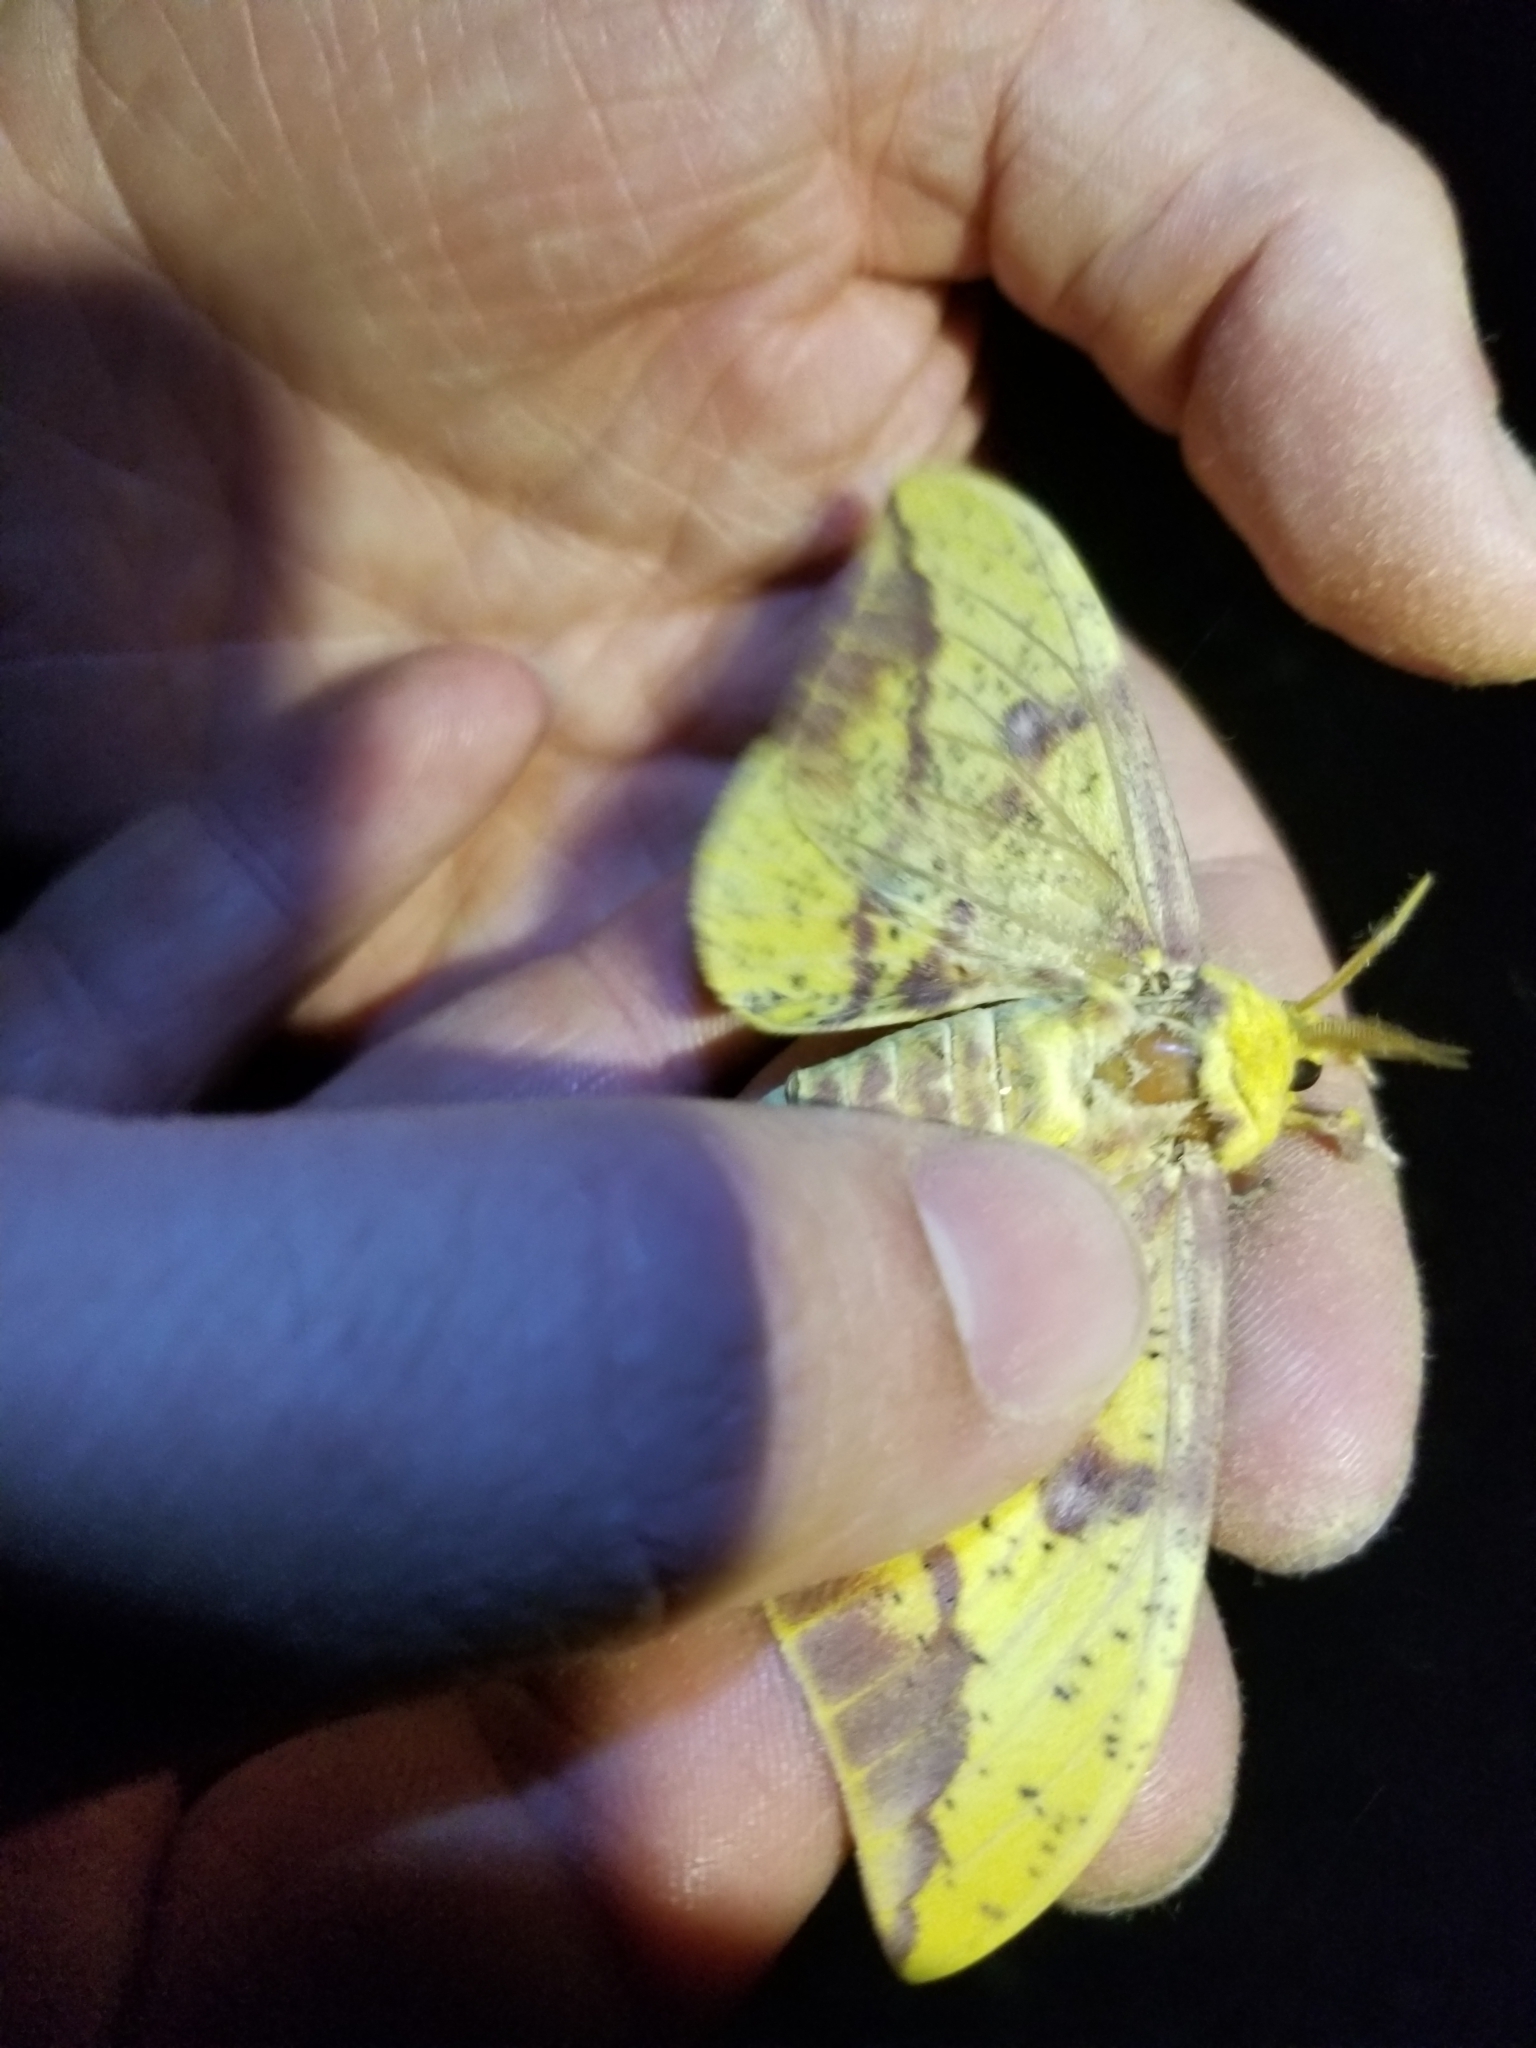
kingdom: Animalia
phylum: Arthropoda
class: Insecta
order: Lepidoptera
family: Saturniidae
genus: Eacles
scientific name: Eacles imperialis
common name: Imperial moth
